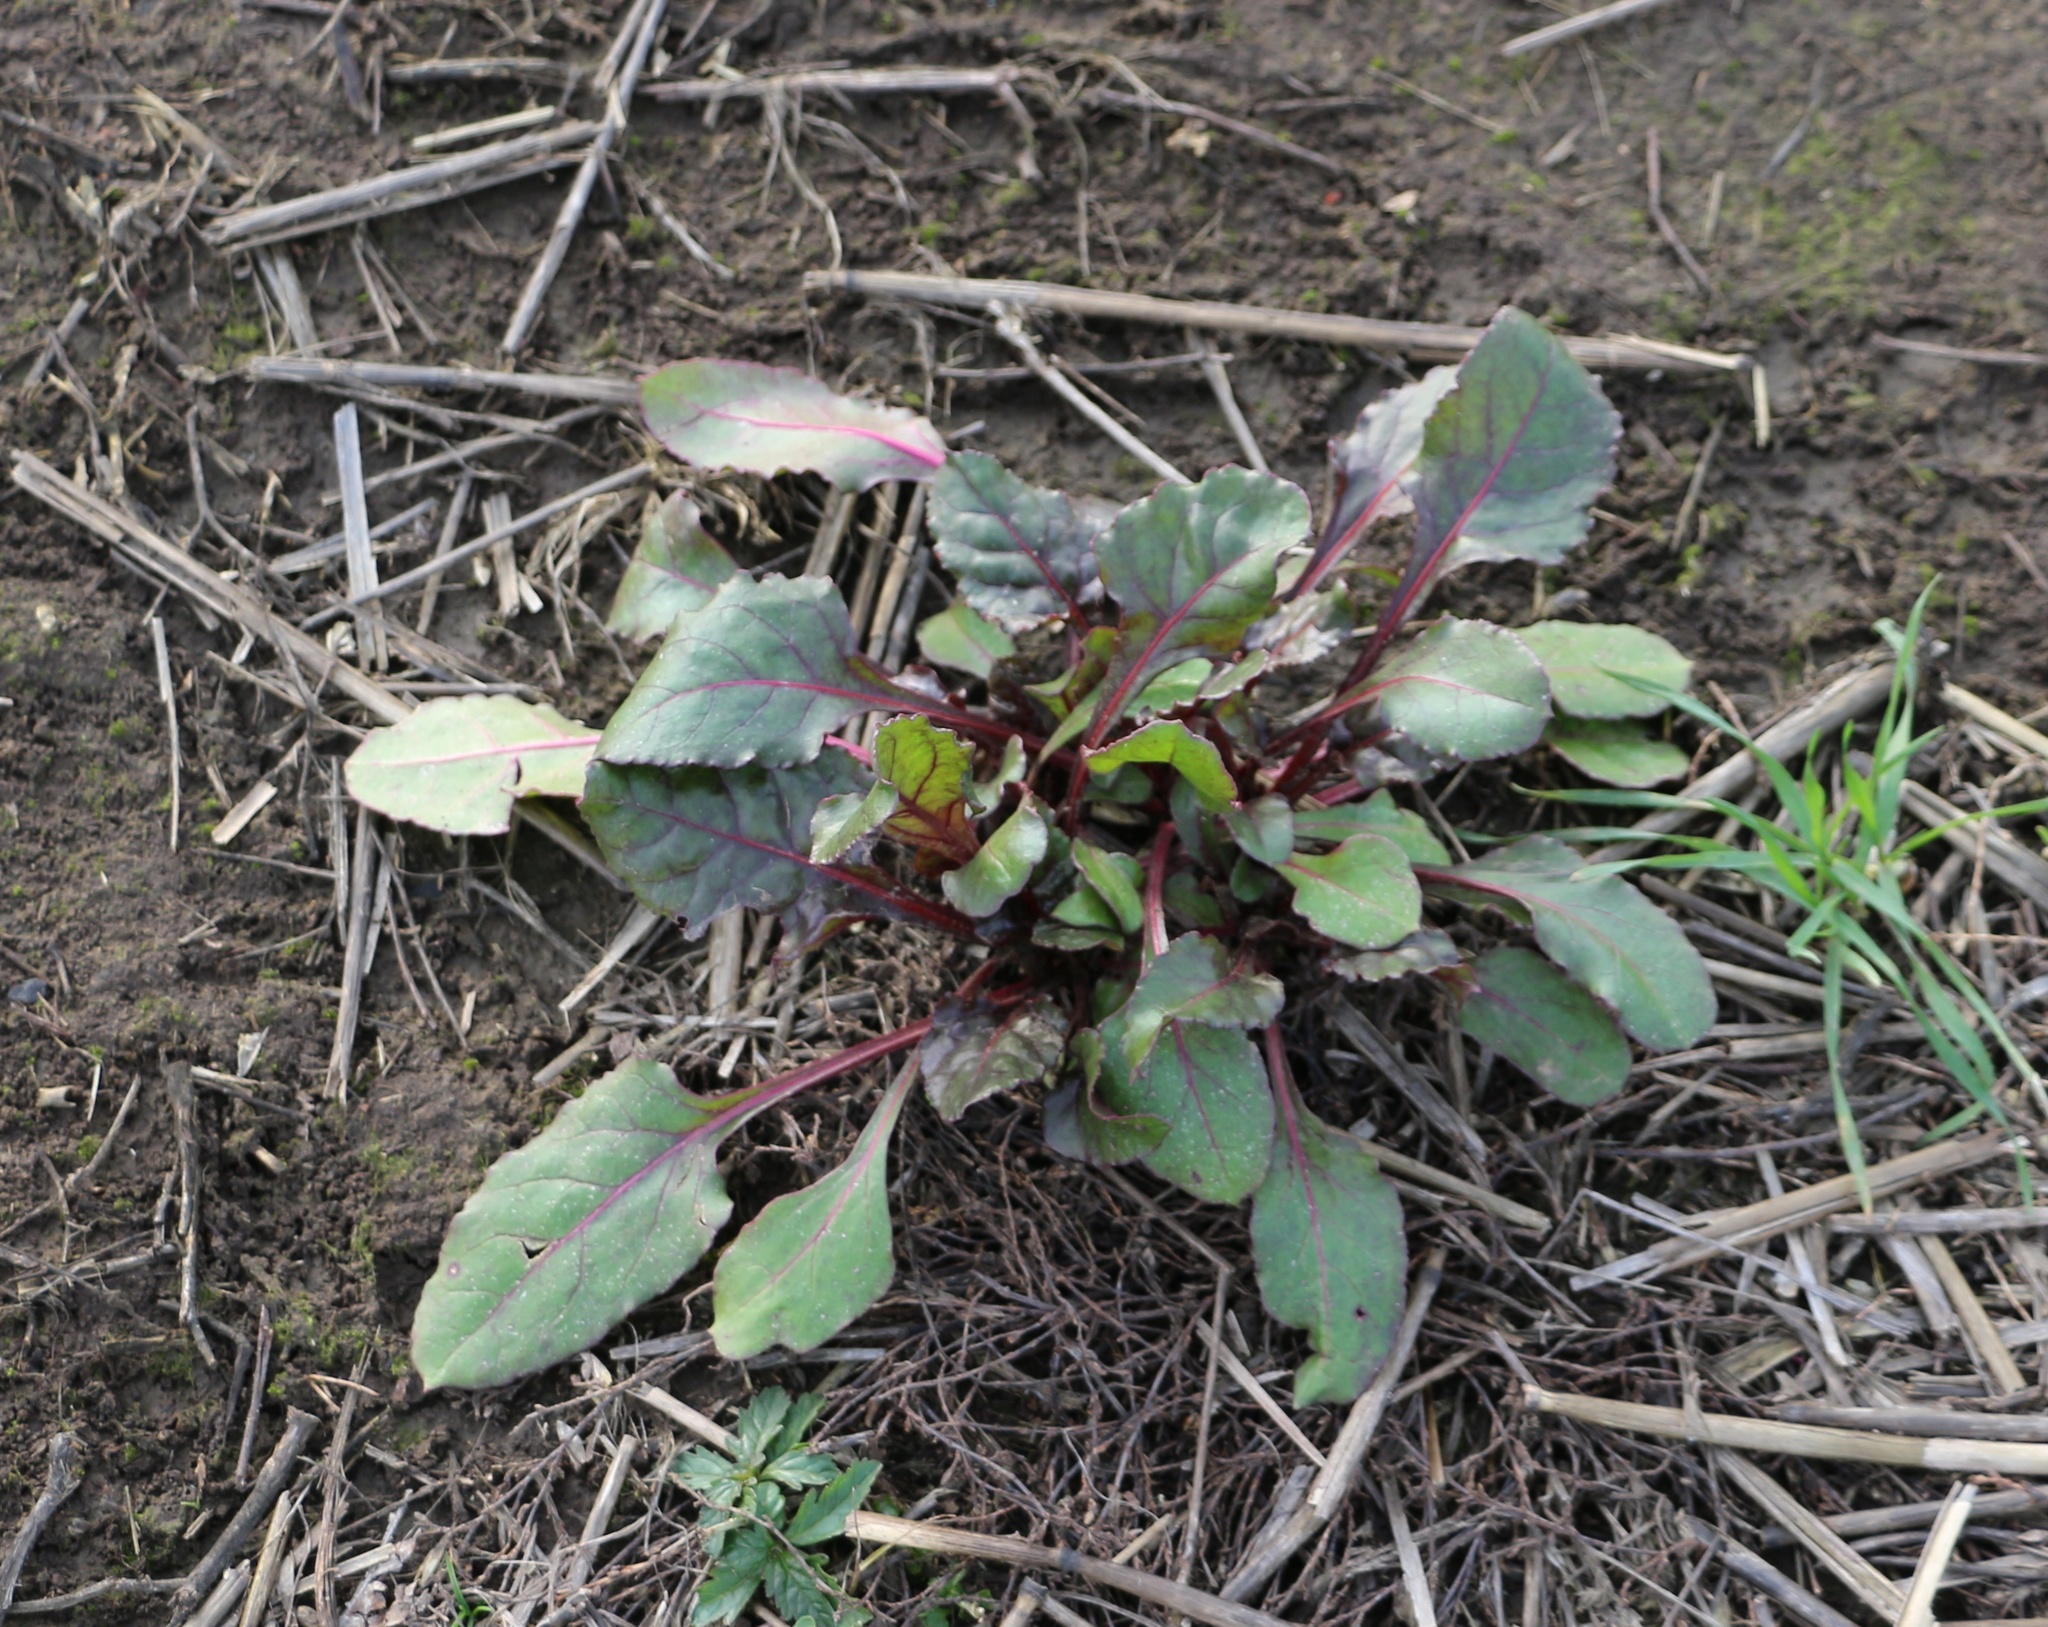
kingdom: Plantae
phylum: Tracheophyta
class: Magnoliopsida
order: Caryophyllales
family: Amaranthaceae
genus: Beta
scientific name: Beta vulgaris
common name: Beet
